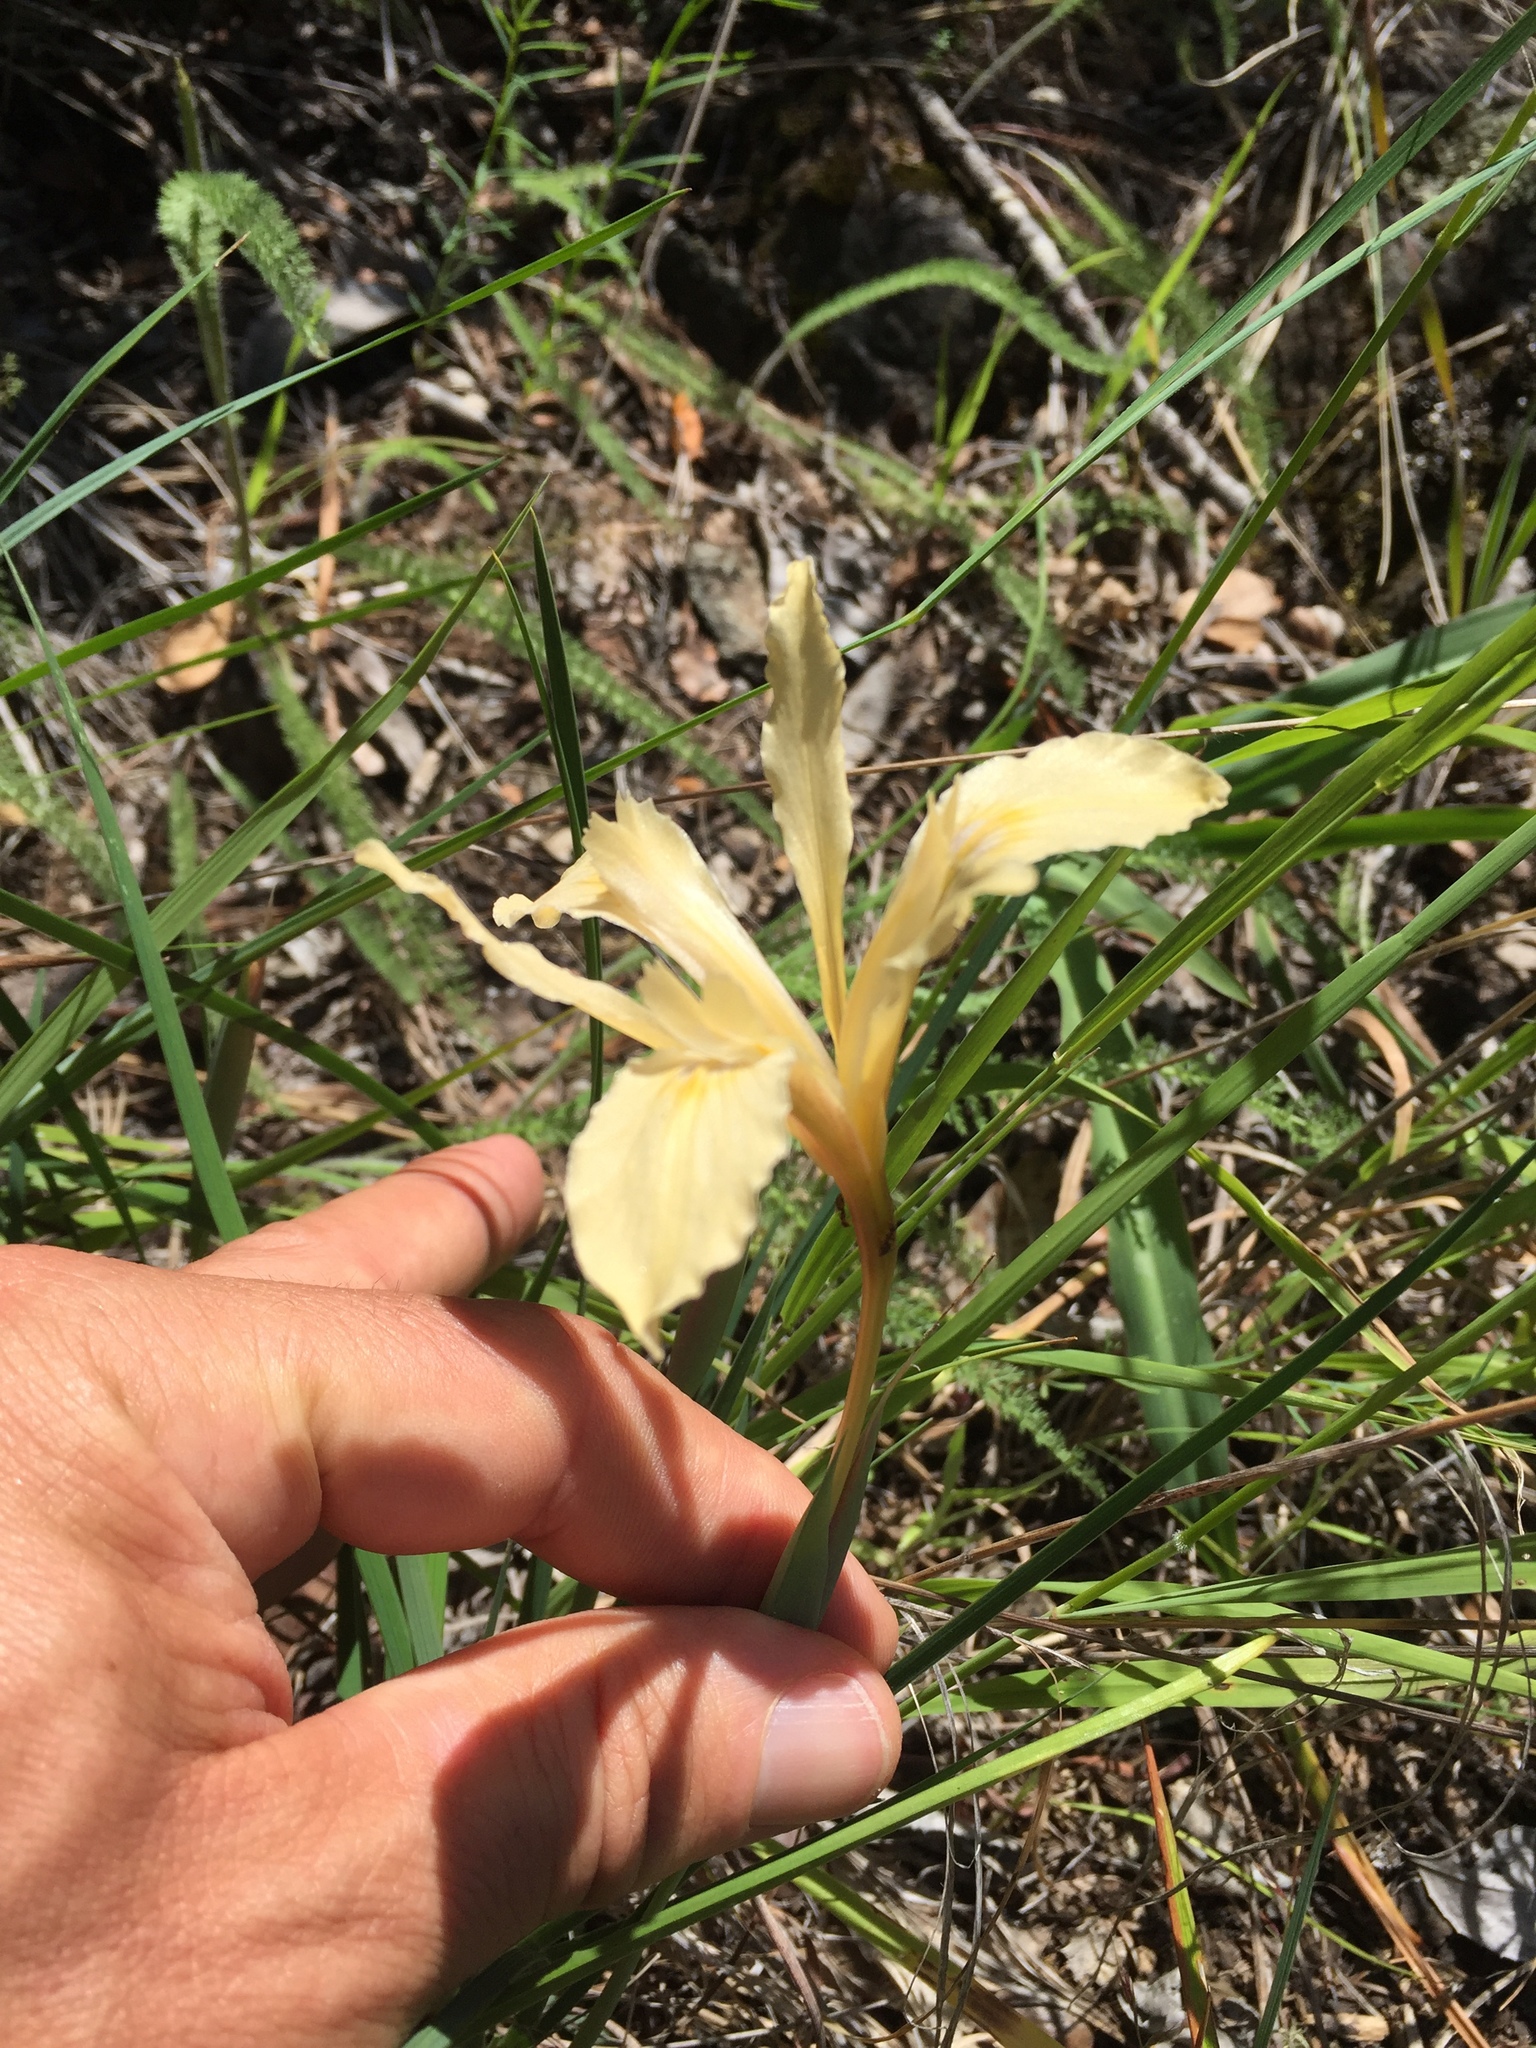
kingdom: Plantae
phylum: Tracheophyta
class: Liliopsida
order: Asparagales
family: Iridaceae
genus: Iris
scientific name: Iris fernaldii
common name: Fernald's iris
